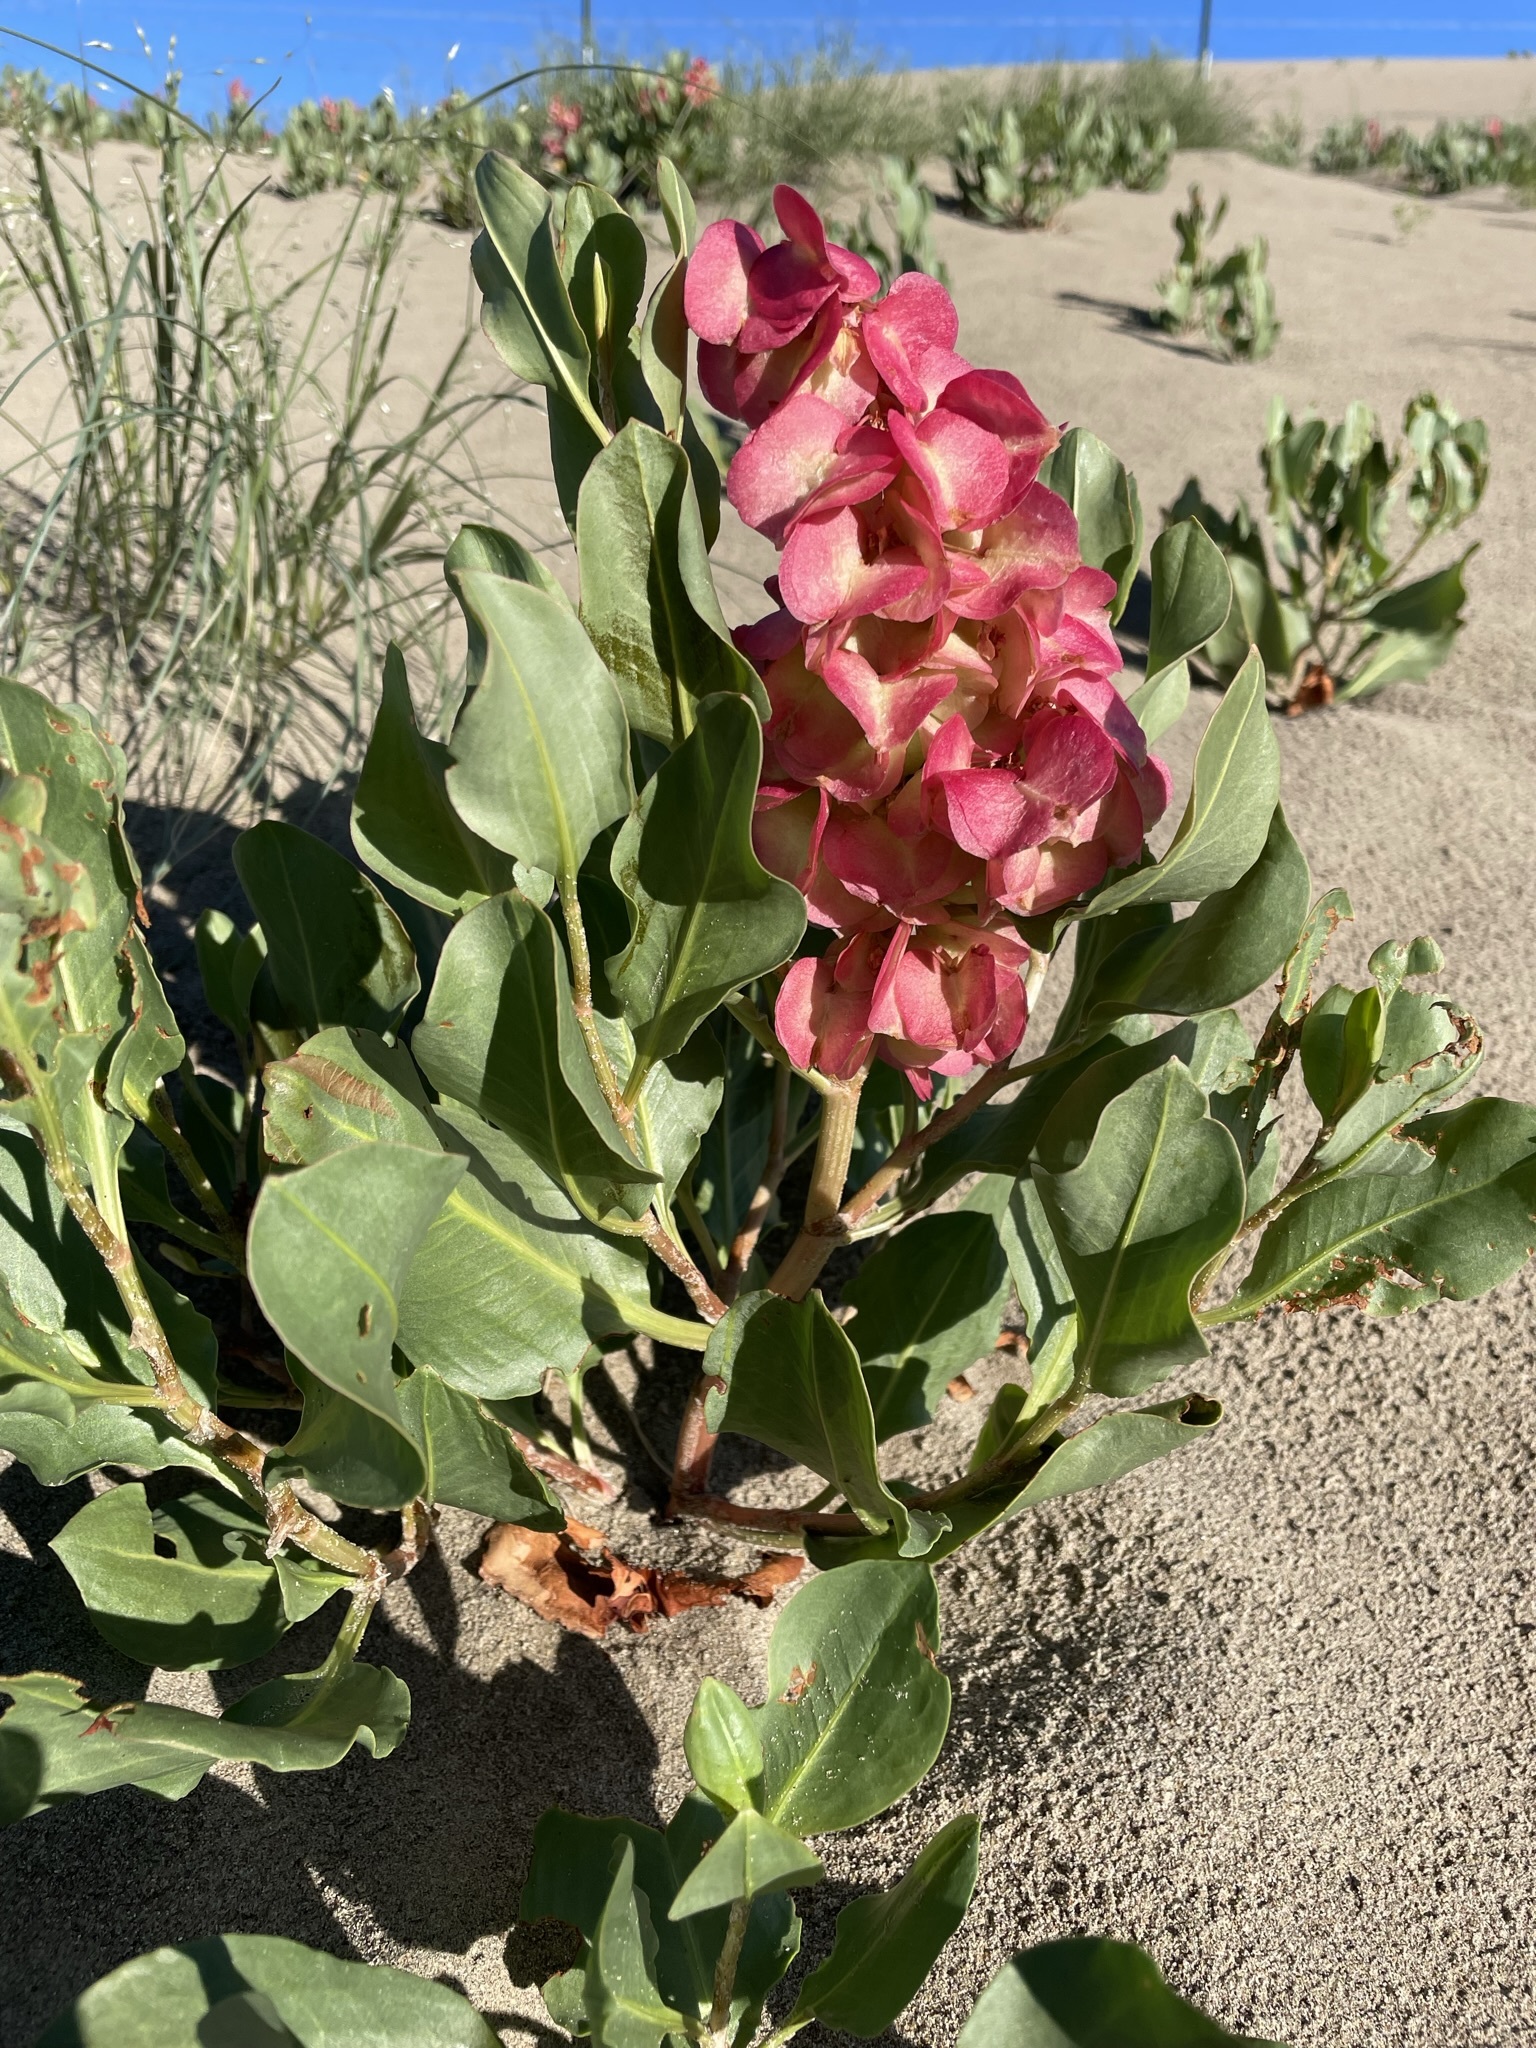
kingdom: Plantae
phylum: Tracheophyta
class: Magnoliopsida
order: Caryophyllales
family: Polygonaceae
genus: Rumex
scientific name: Rumex venosus
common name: Winged dock
